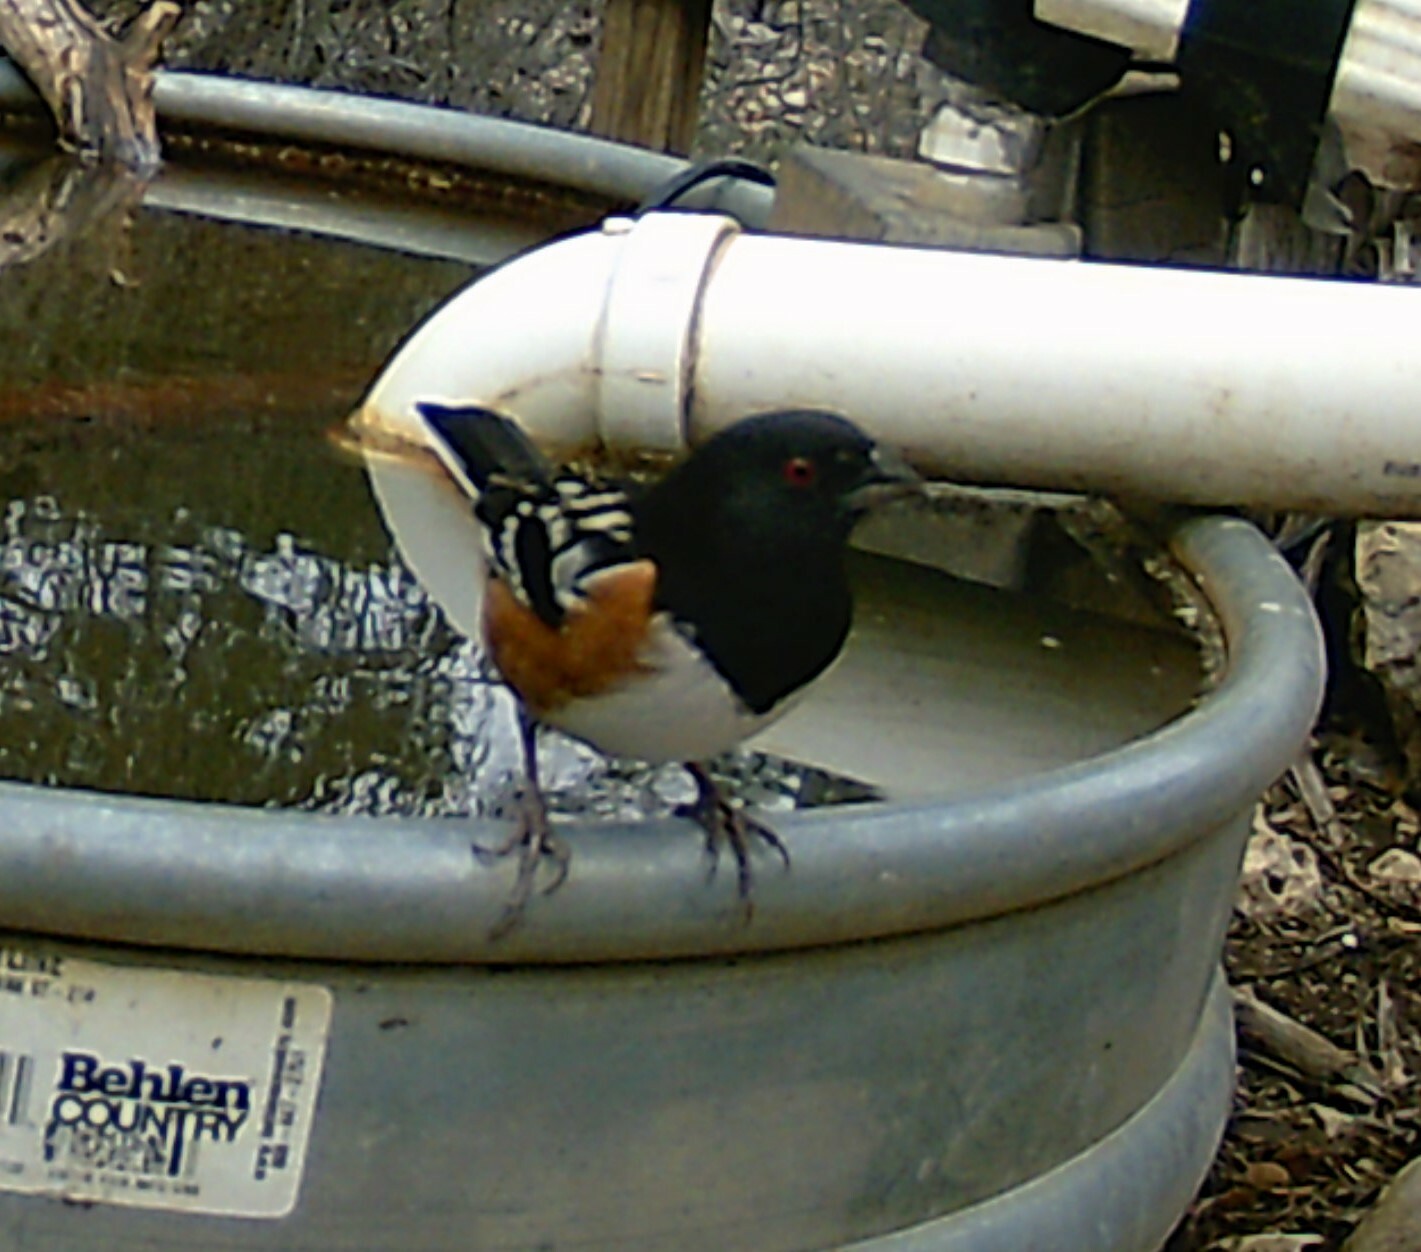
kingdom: Animalia
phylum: Chordata
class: Aves
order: Passeriformes
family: Passerellidae
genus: Pipilo
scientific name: Pipilo maculatus
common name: Spotted towhee
